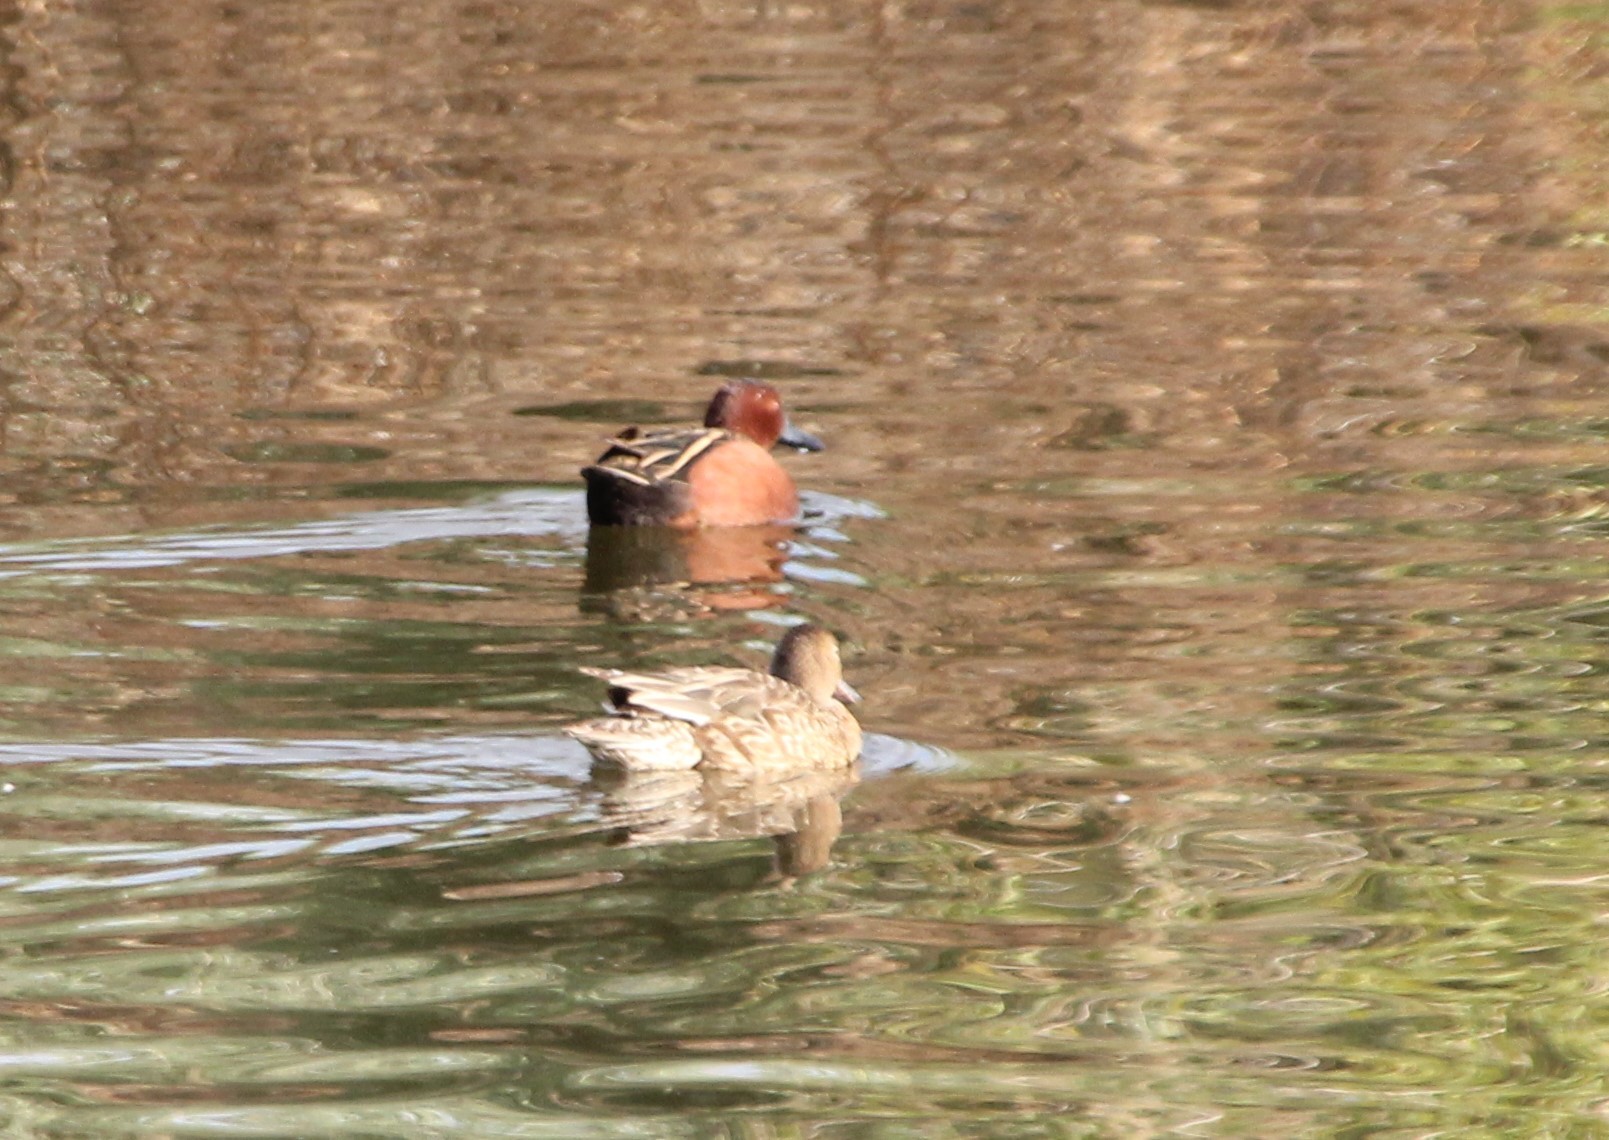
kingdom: Animalia
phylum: Chordata
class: Aves
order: Anseriformes
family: Anatidae
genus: Spatula
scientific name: Spatula cyanoptera
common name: Cinnamon teal
